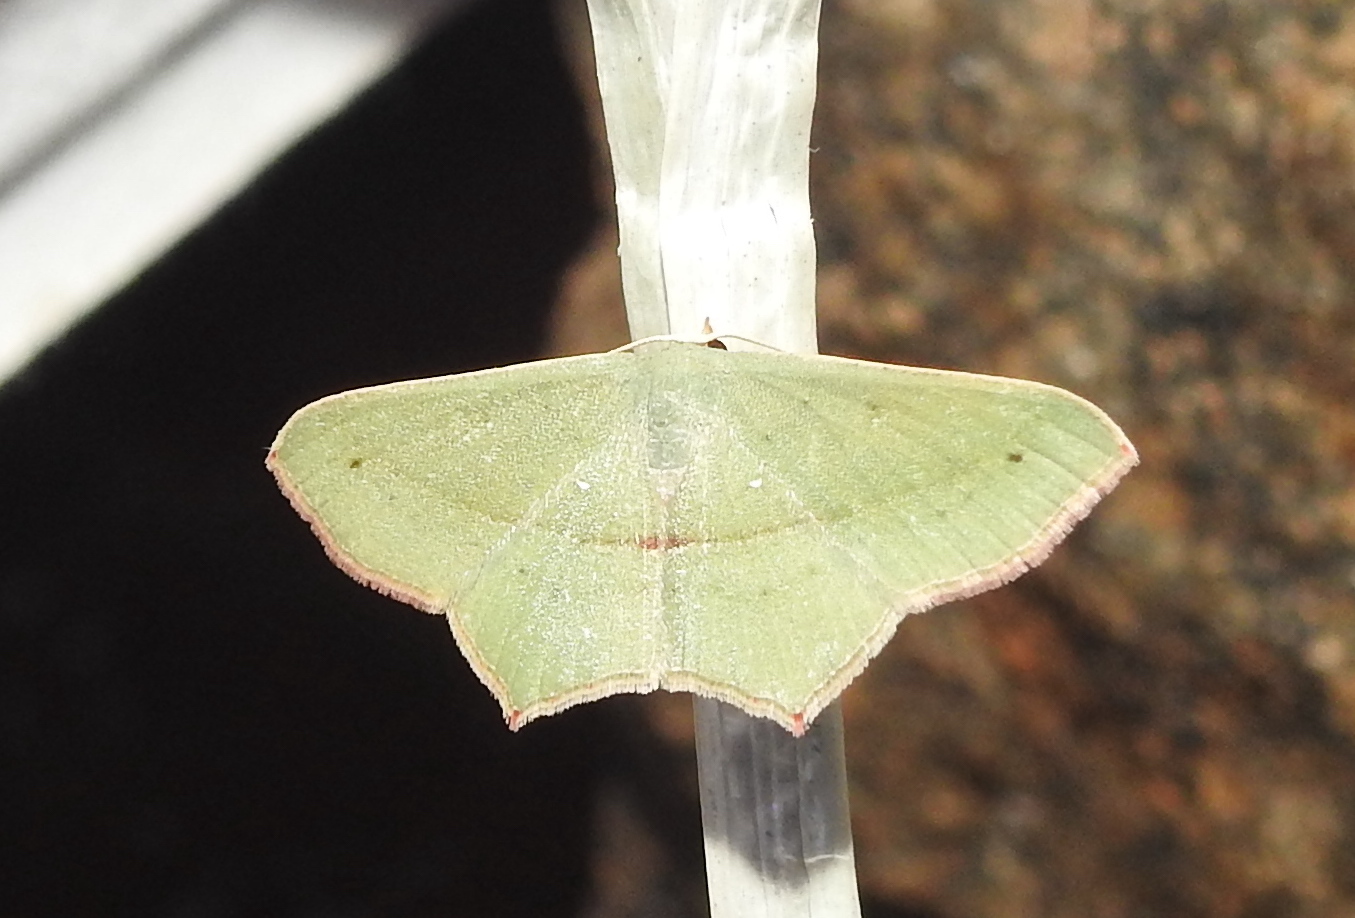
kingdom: Animalia
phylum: Arthropoda
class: Insecta
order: Lepidoptera
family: Geometridae
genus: Traminda
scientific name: Traminda mundissima
